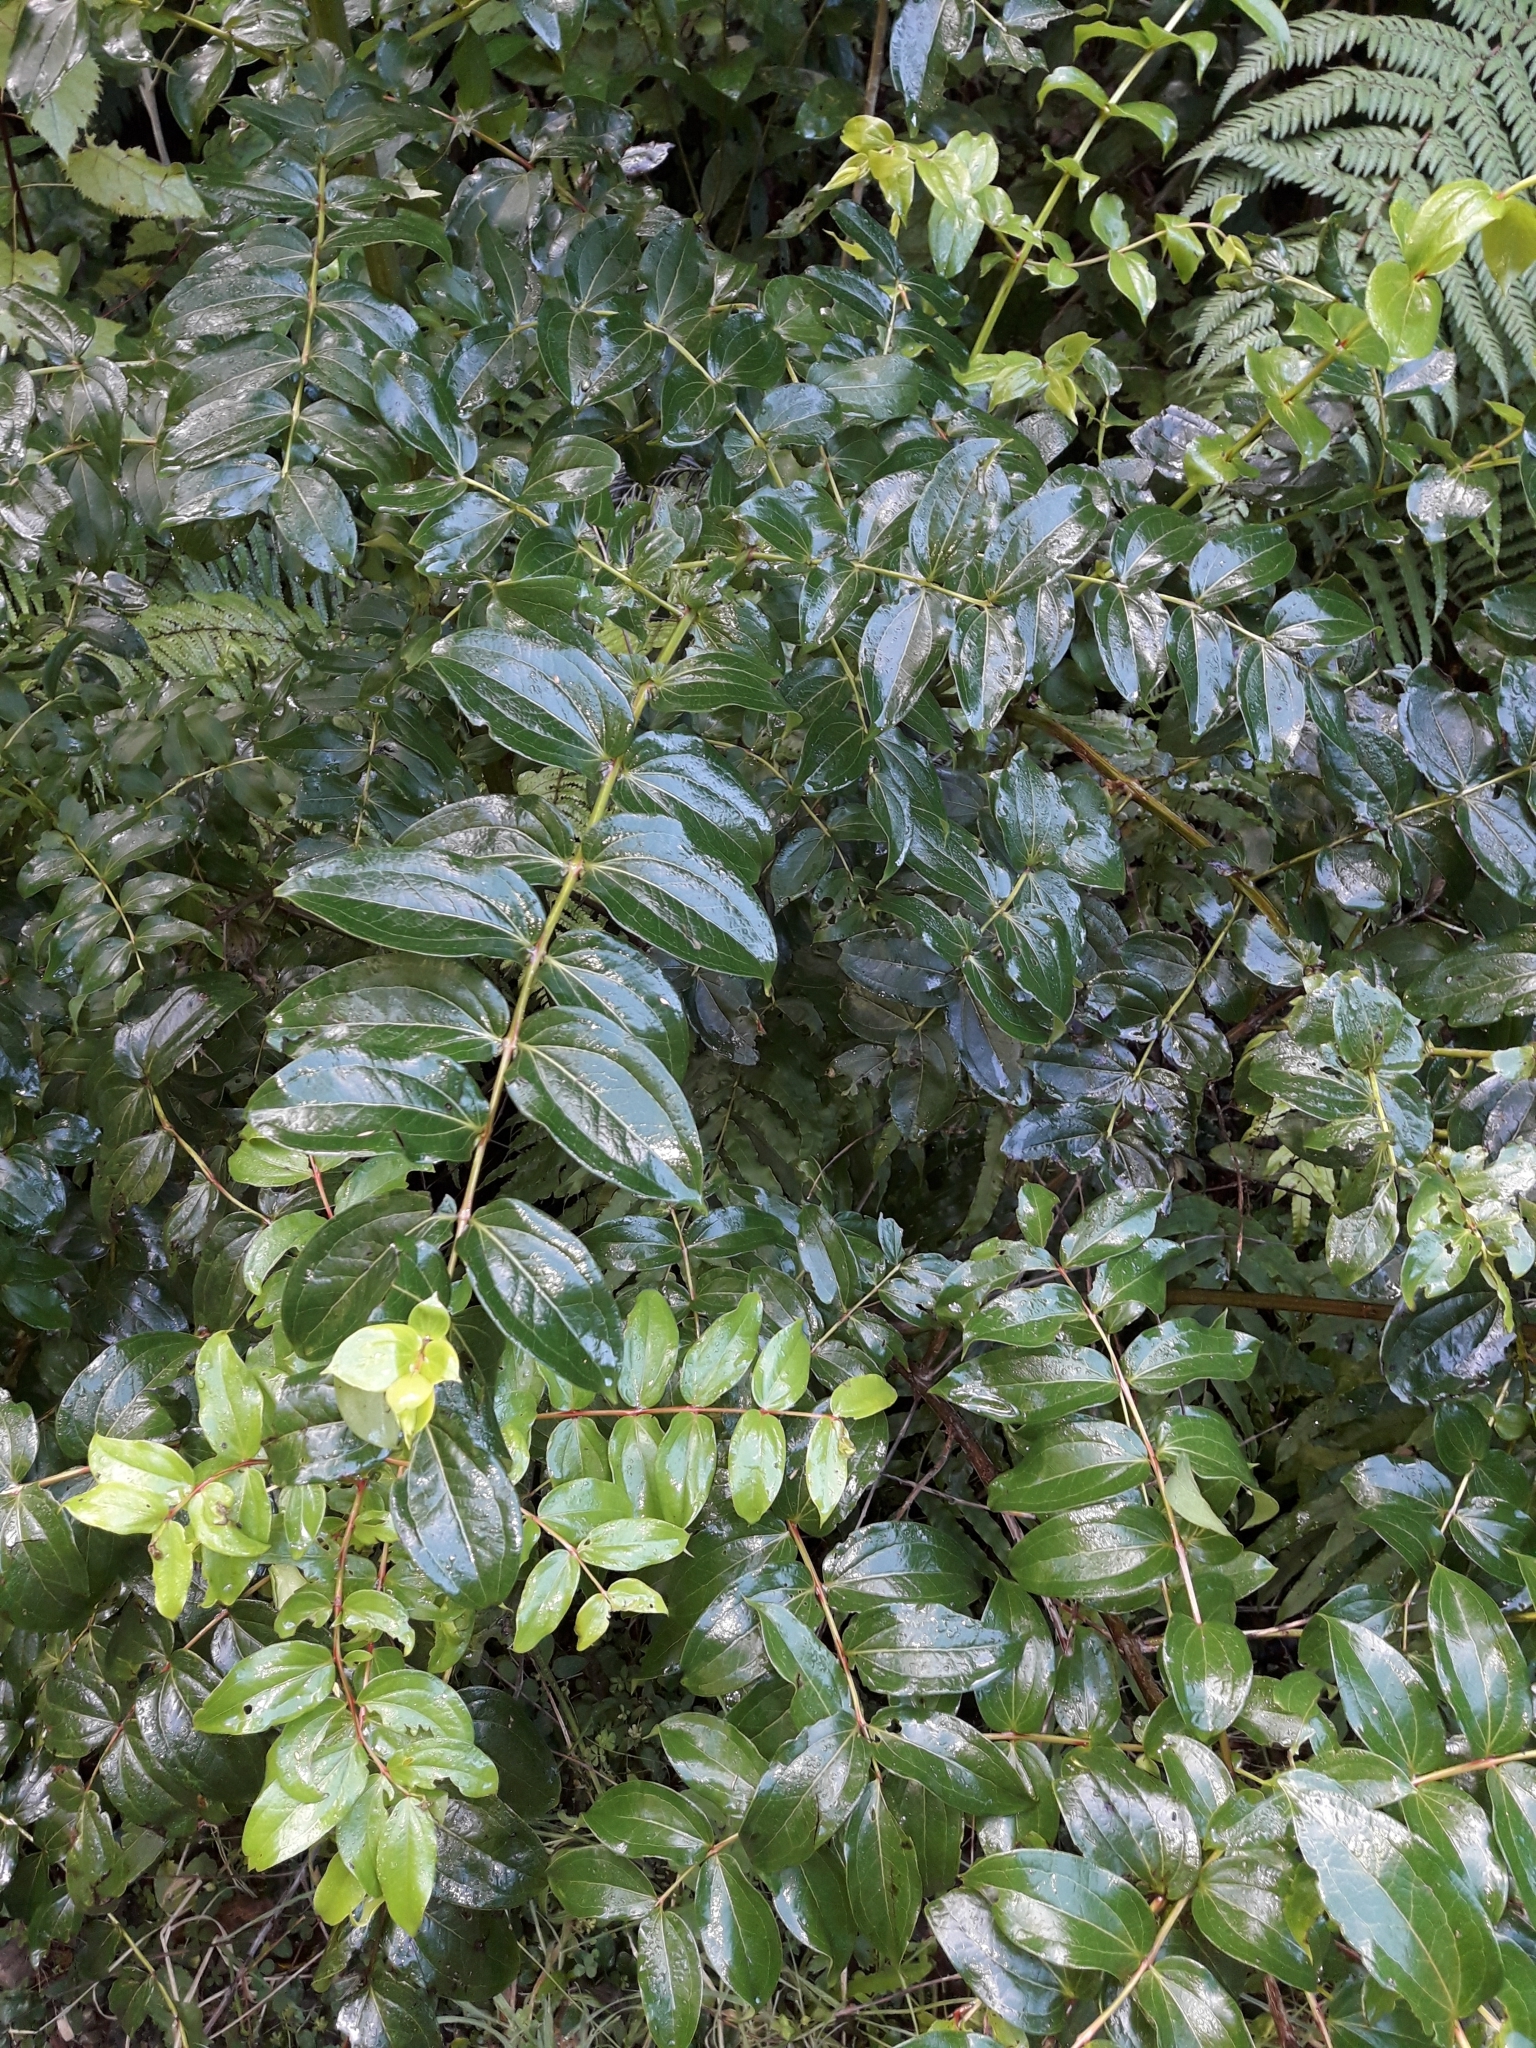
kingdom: Plantae
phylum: Tracheophyta
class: Magnoliopsida
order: Cucurbitales
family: Coriariaceae
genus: Coriaria
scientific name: Coriaria arborea
